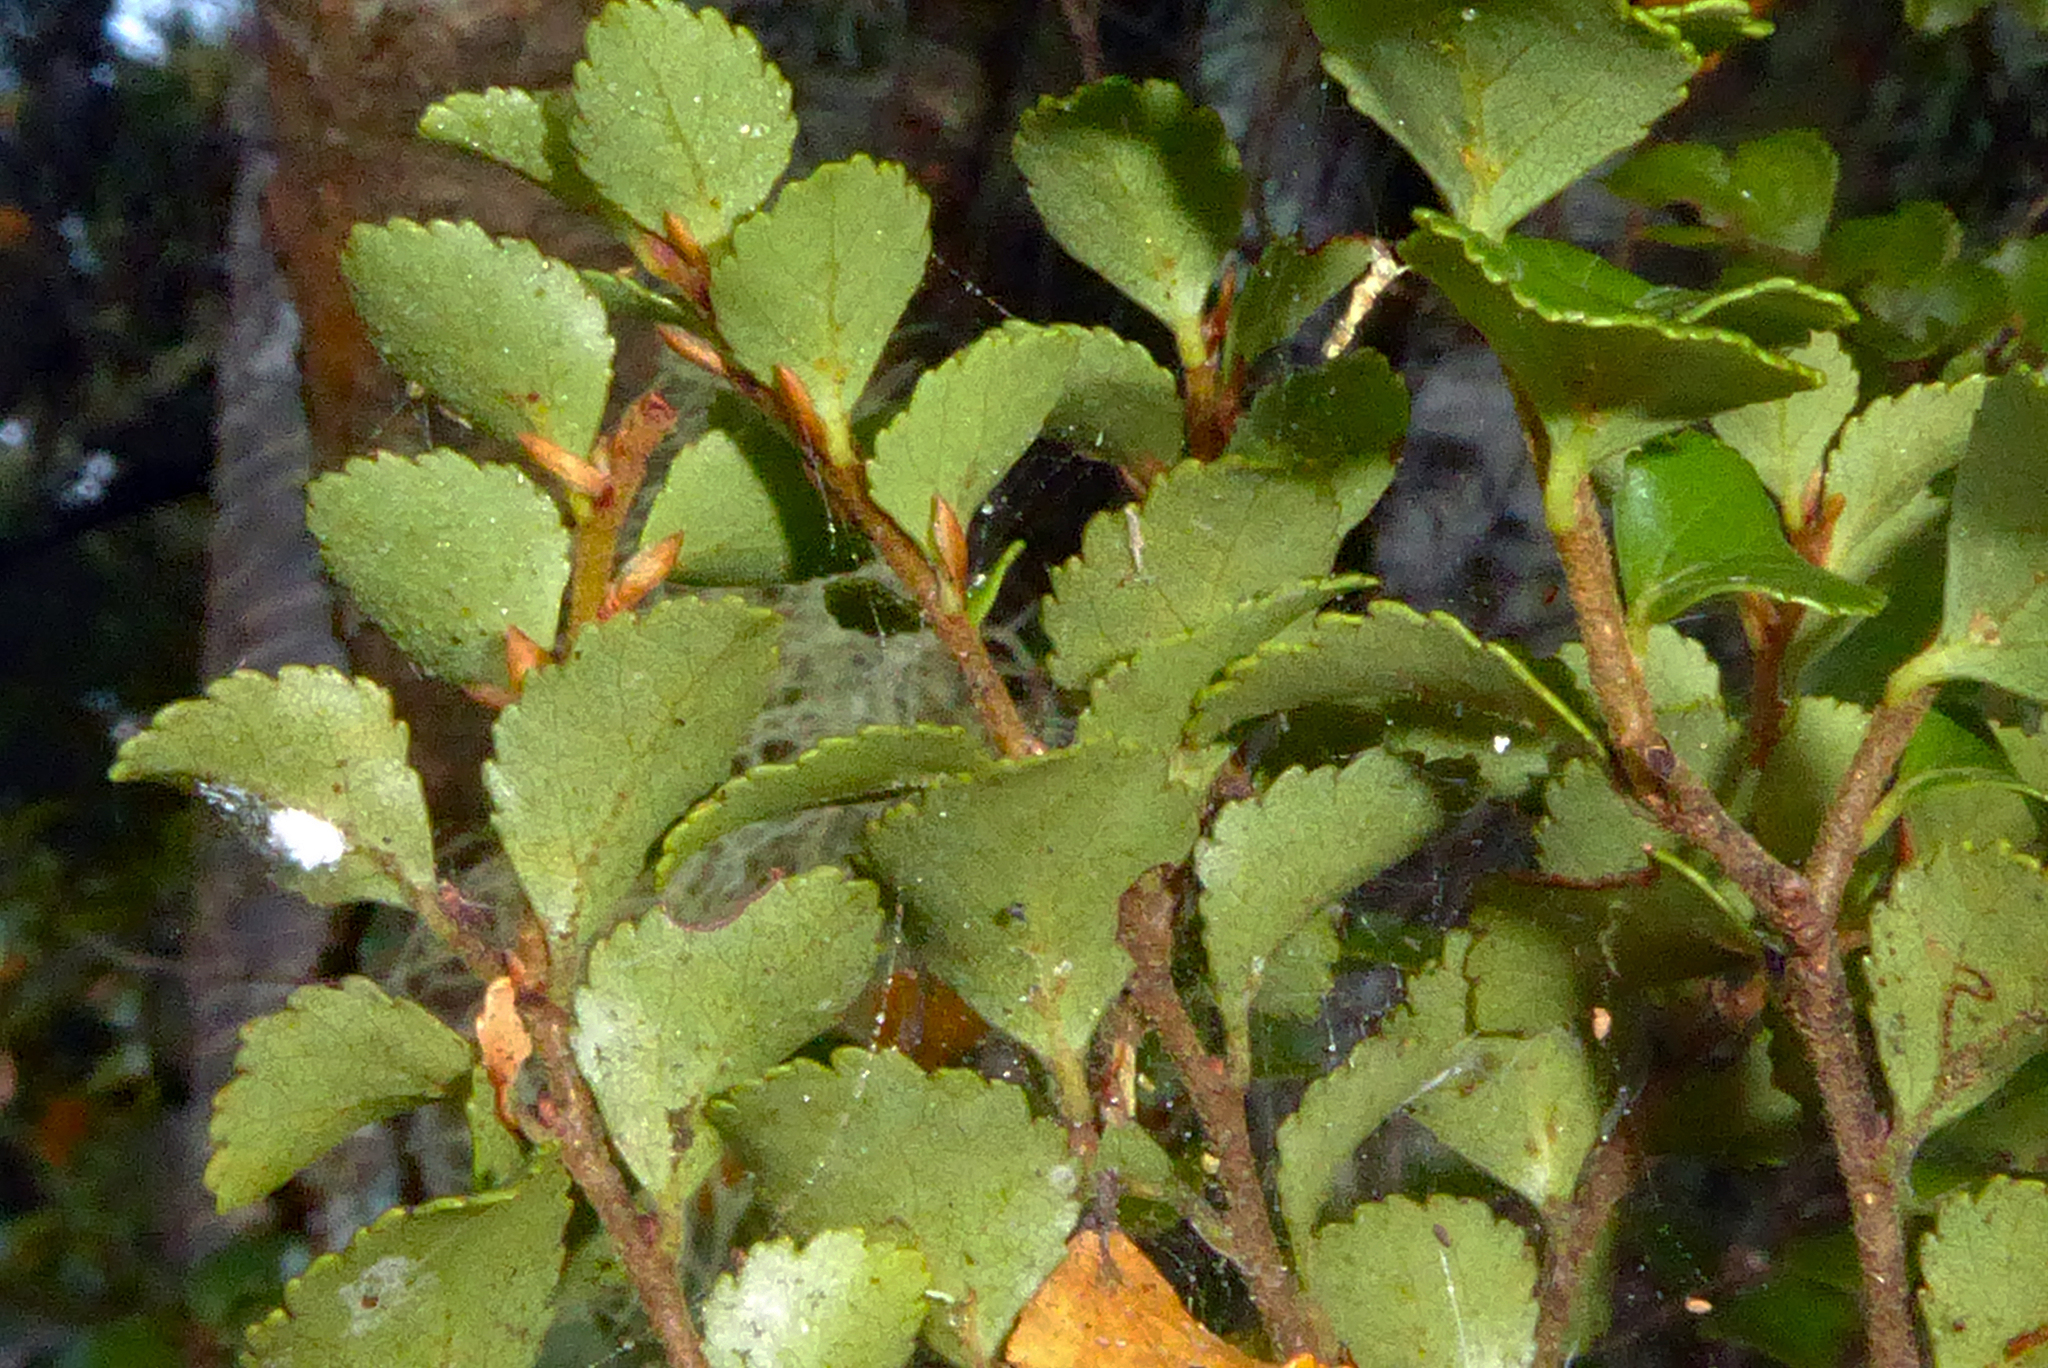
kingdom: Plantae
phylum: Tracheophyta
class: Magnoliopsida
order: Fagales
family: Nothofagaceae
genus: Nothofagus
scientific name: Nothofagus menziesii
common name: Silver beech
